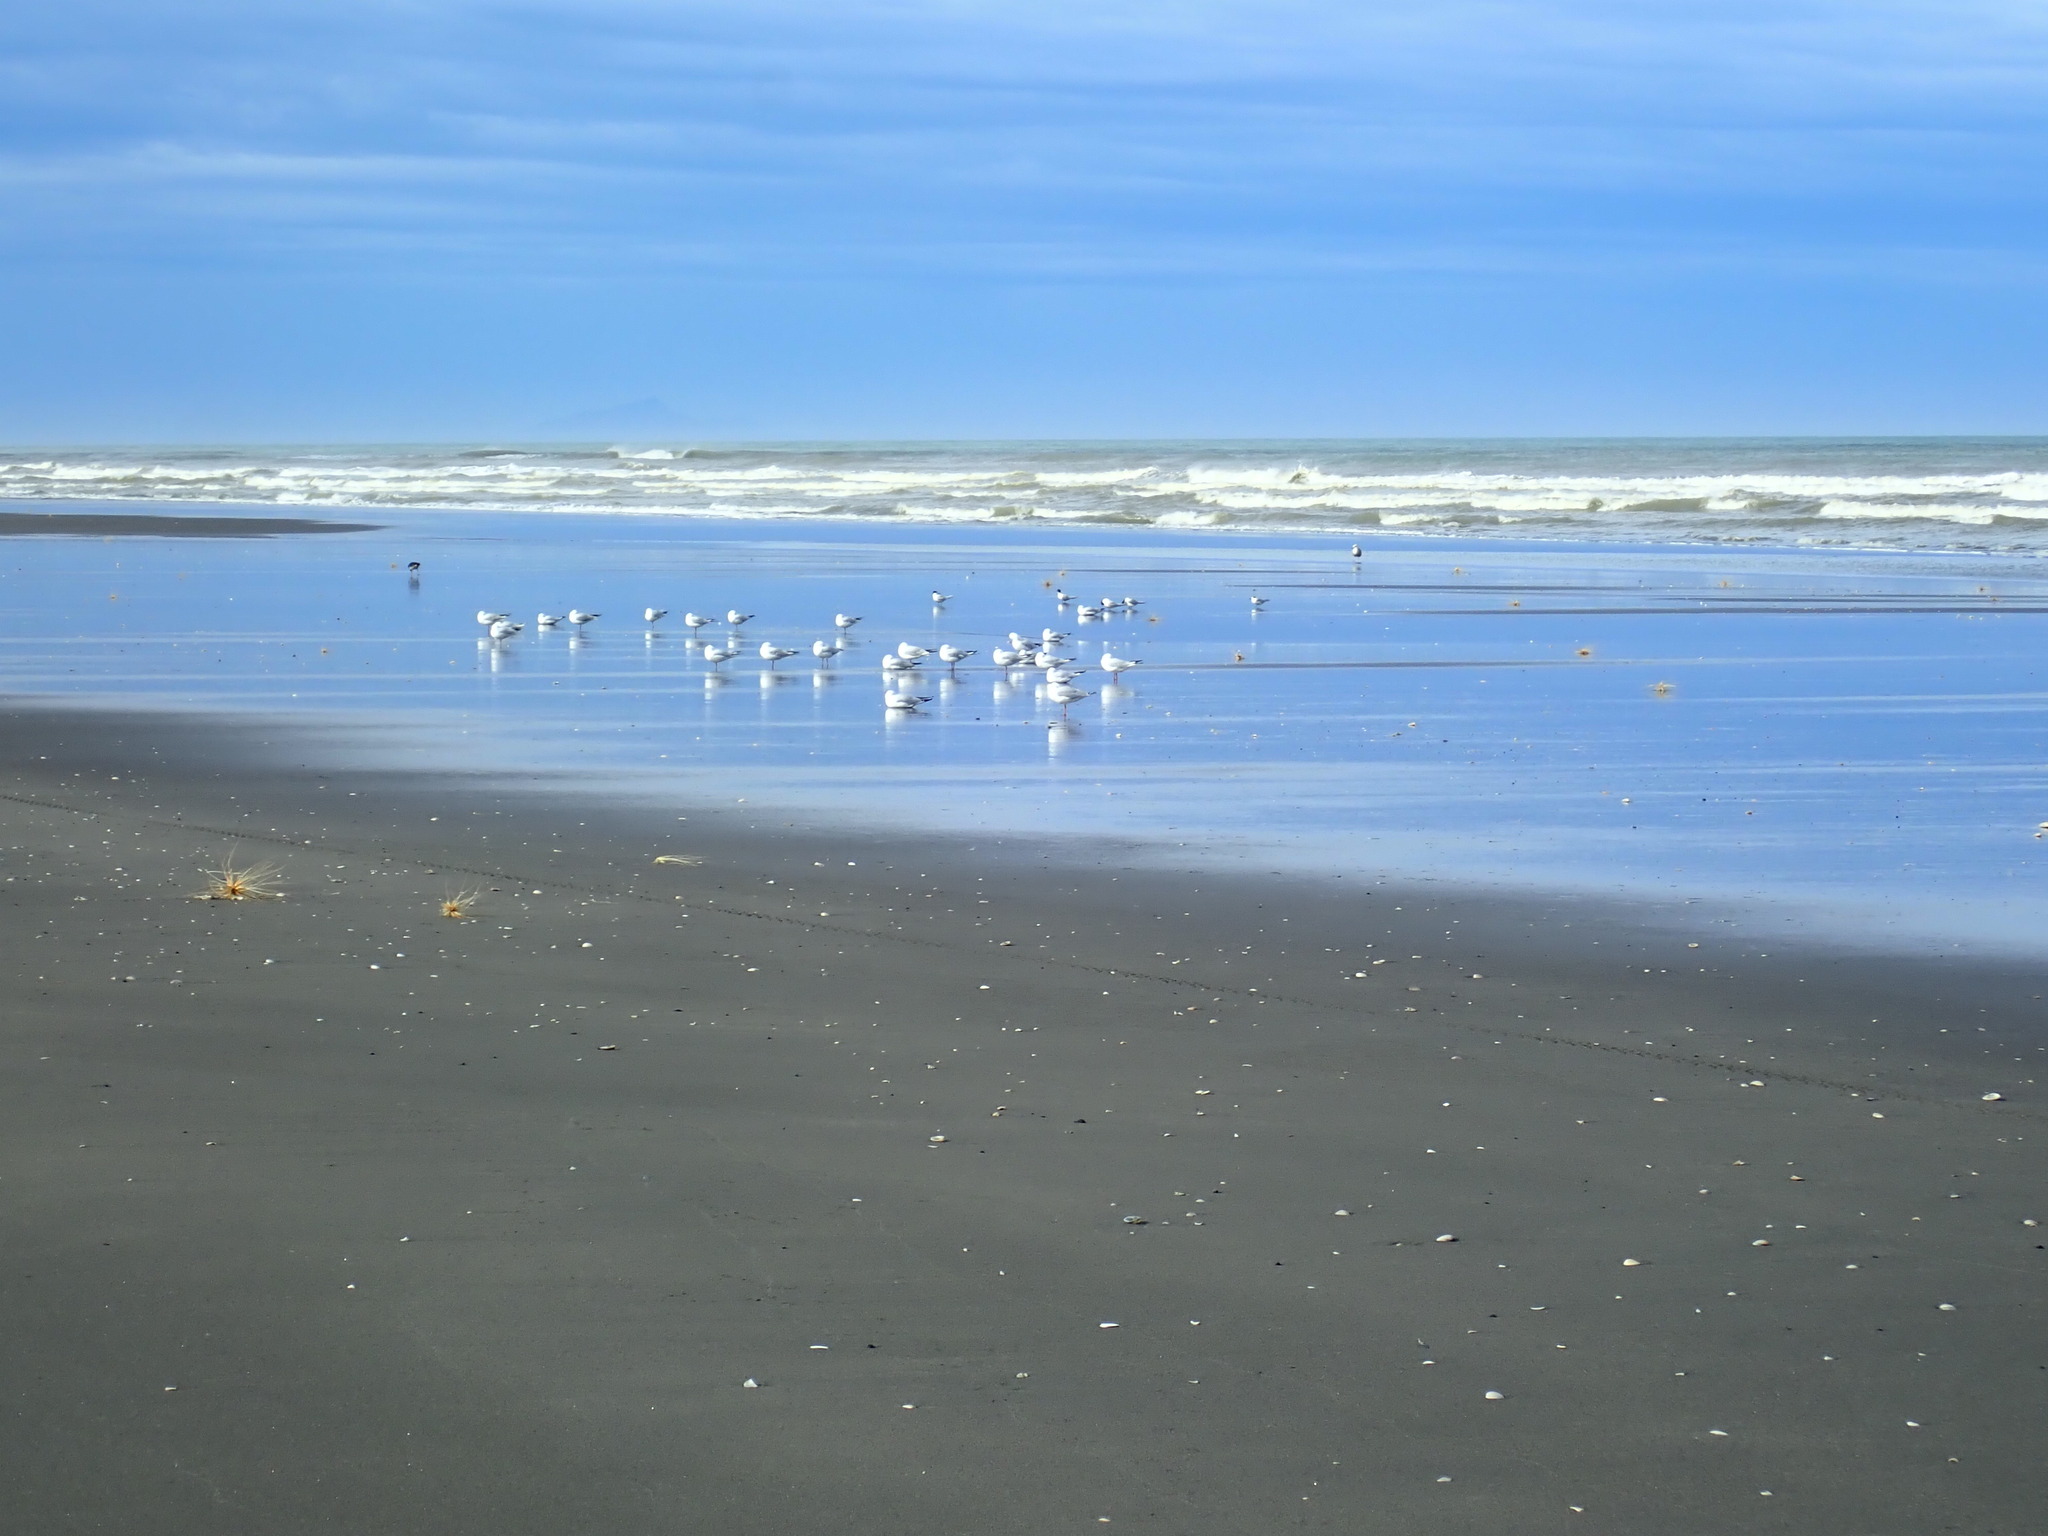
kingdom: Animalia
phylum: Chordata
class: Aves
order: Charadriiformes
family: Laridae
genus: Sterna
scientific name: Sterna striata
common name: White-fronted tern
